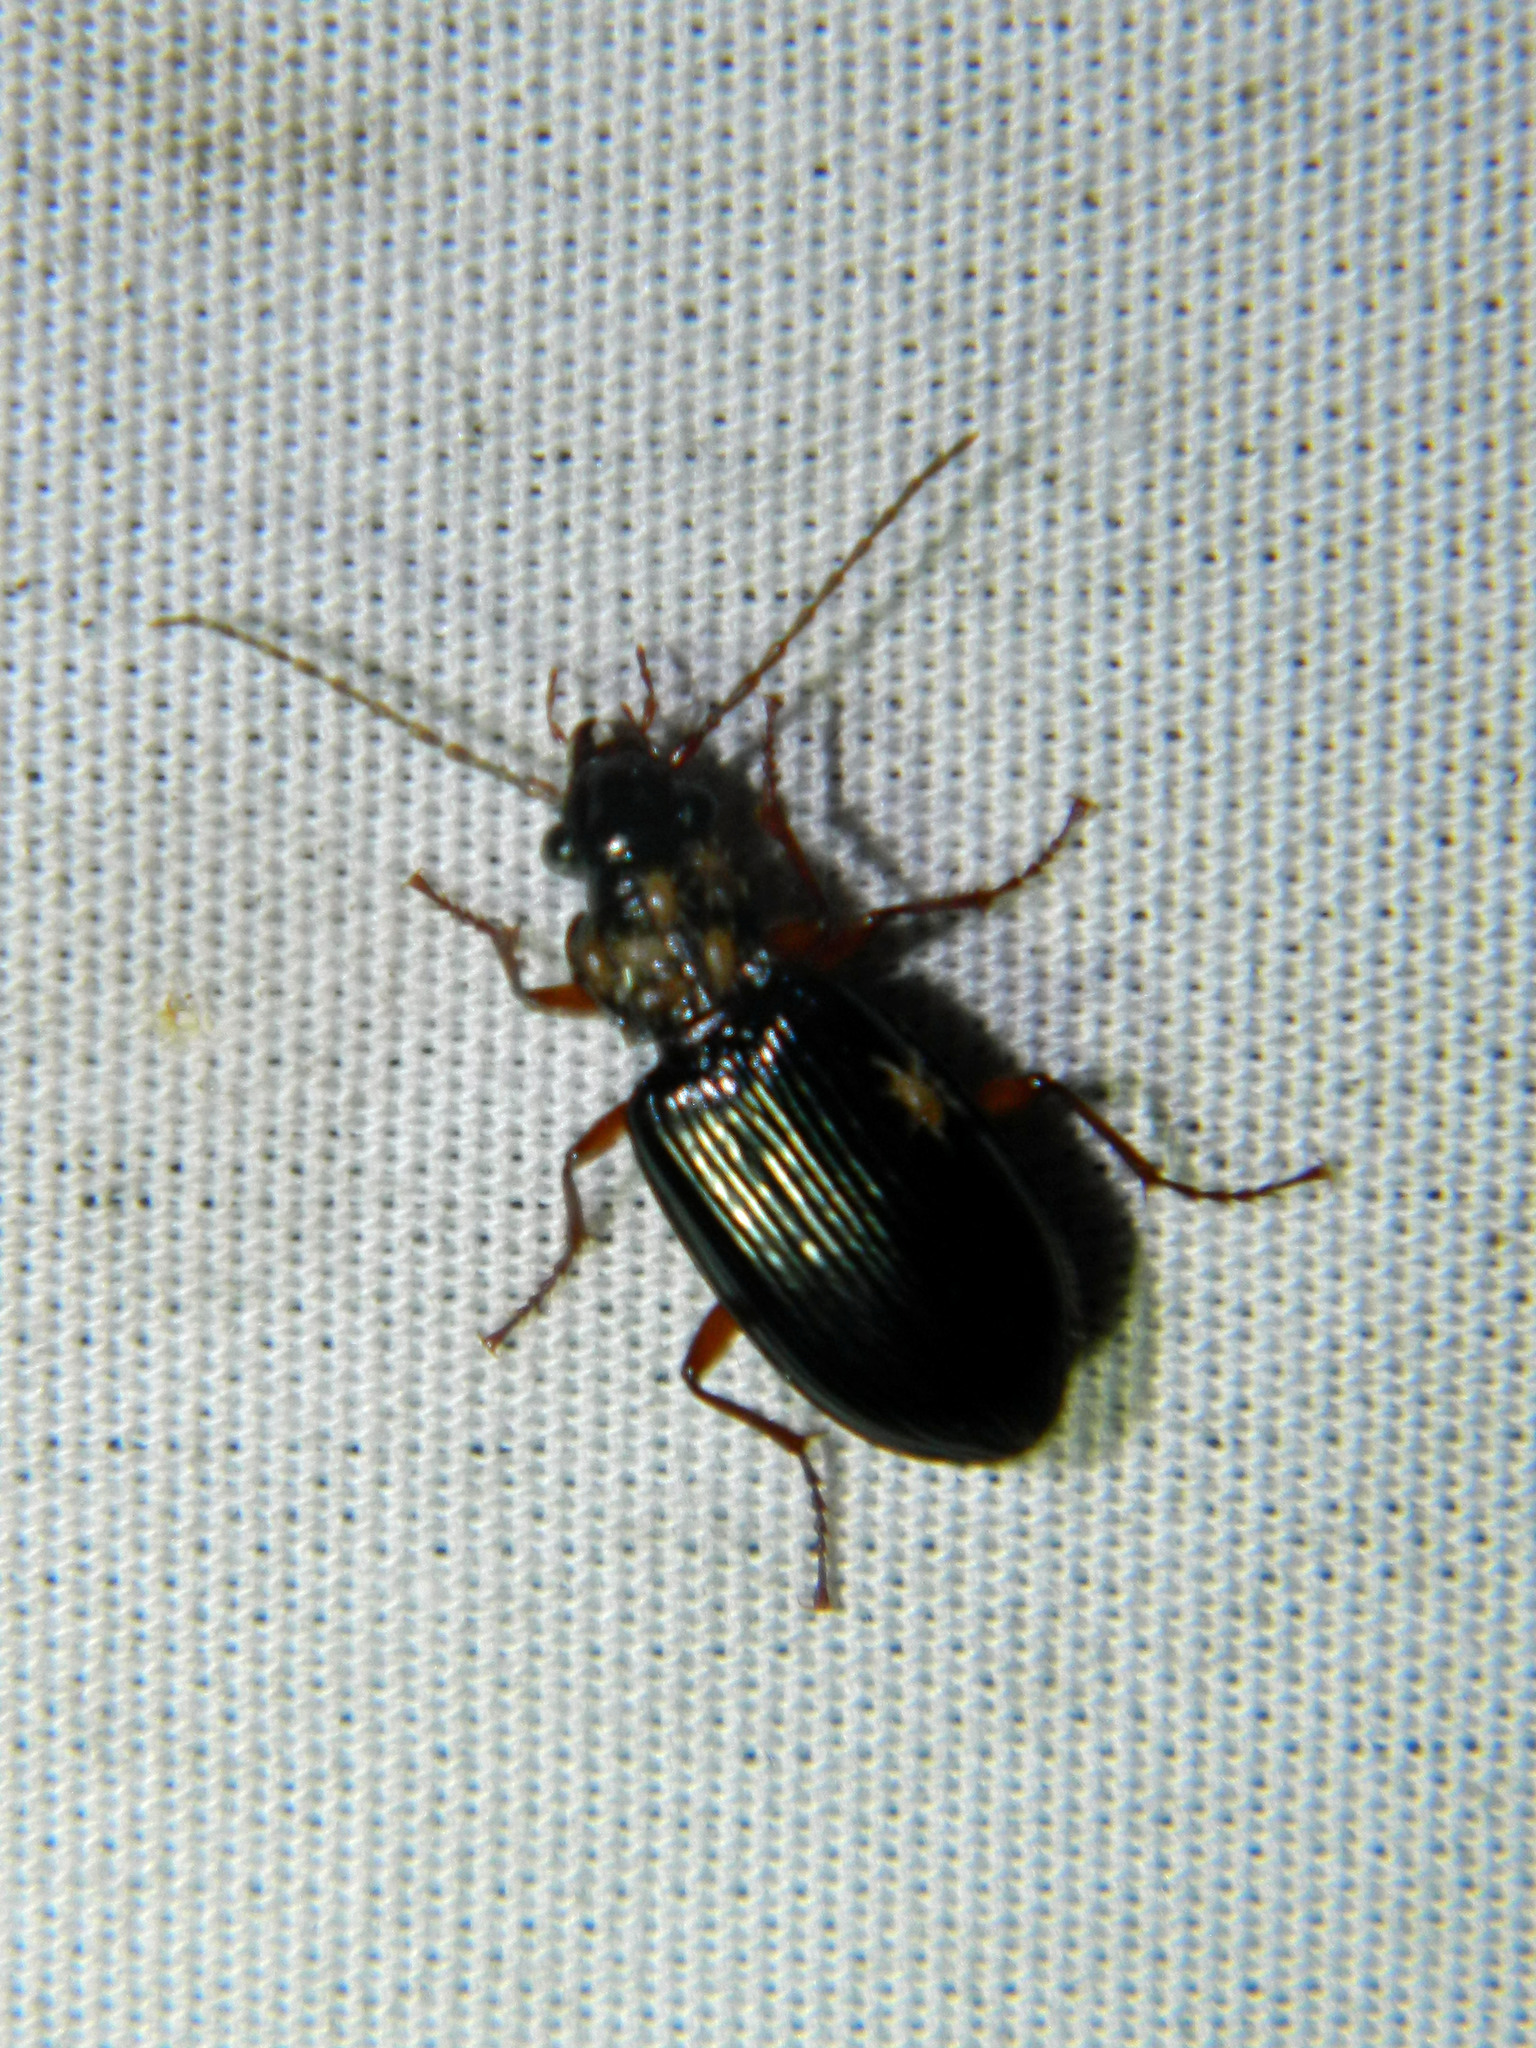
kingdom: Animalia
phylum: Arthropoda
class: Insecta
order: Coleoptera
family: Carabidae
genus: Platypatrobus
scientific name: Platypatrobus lacustris
